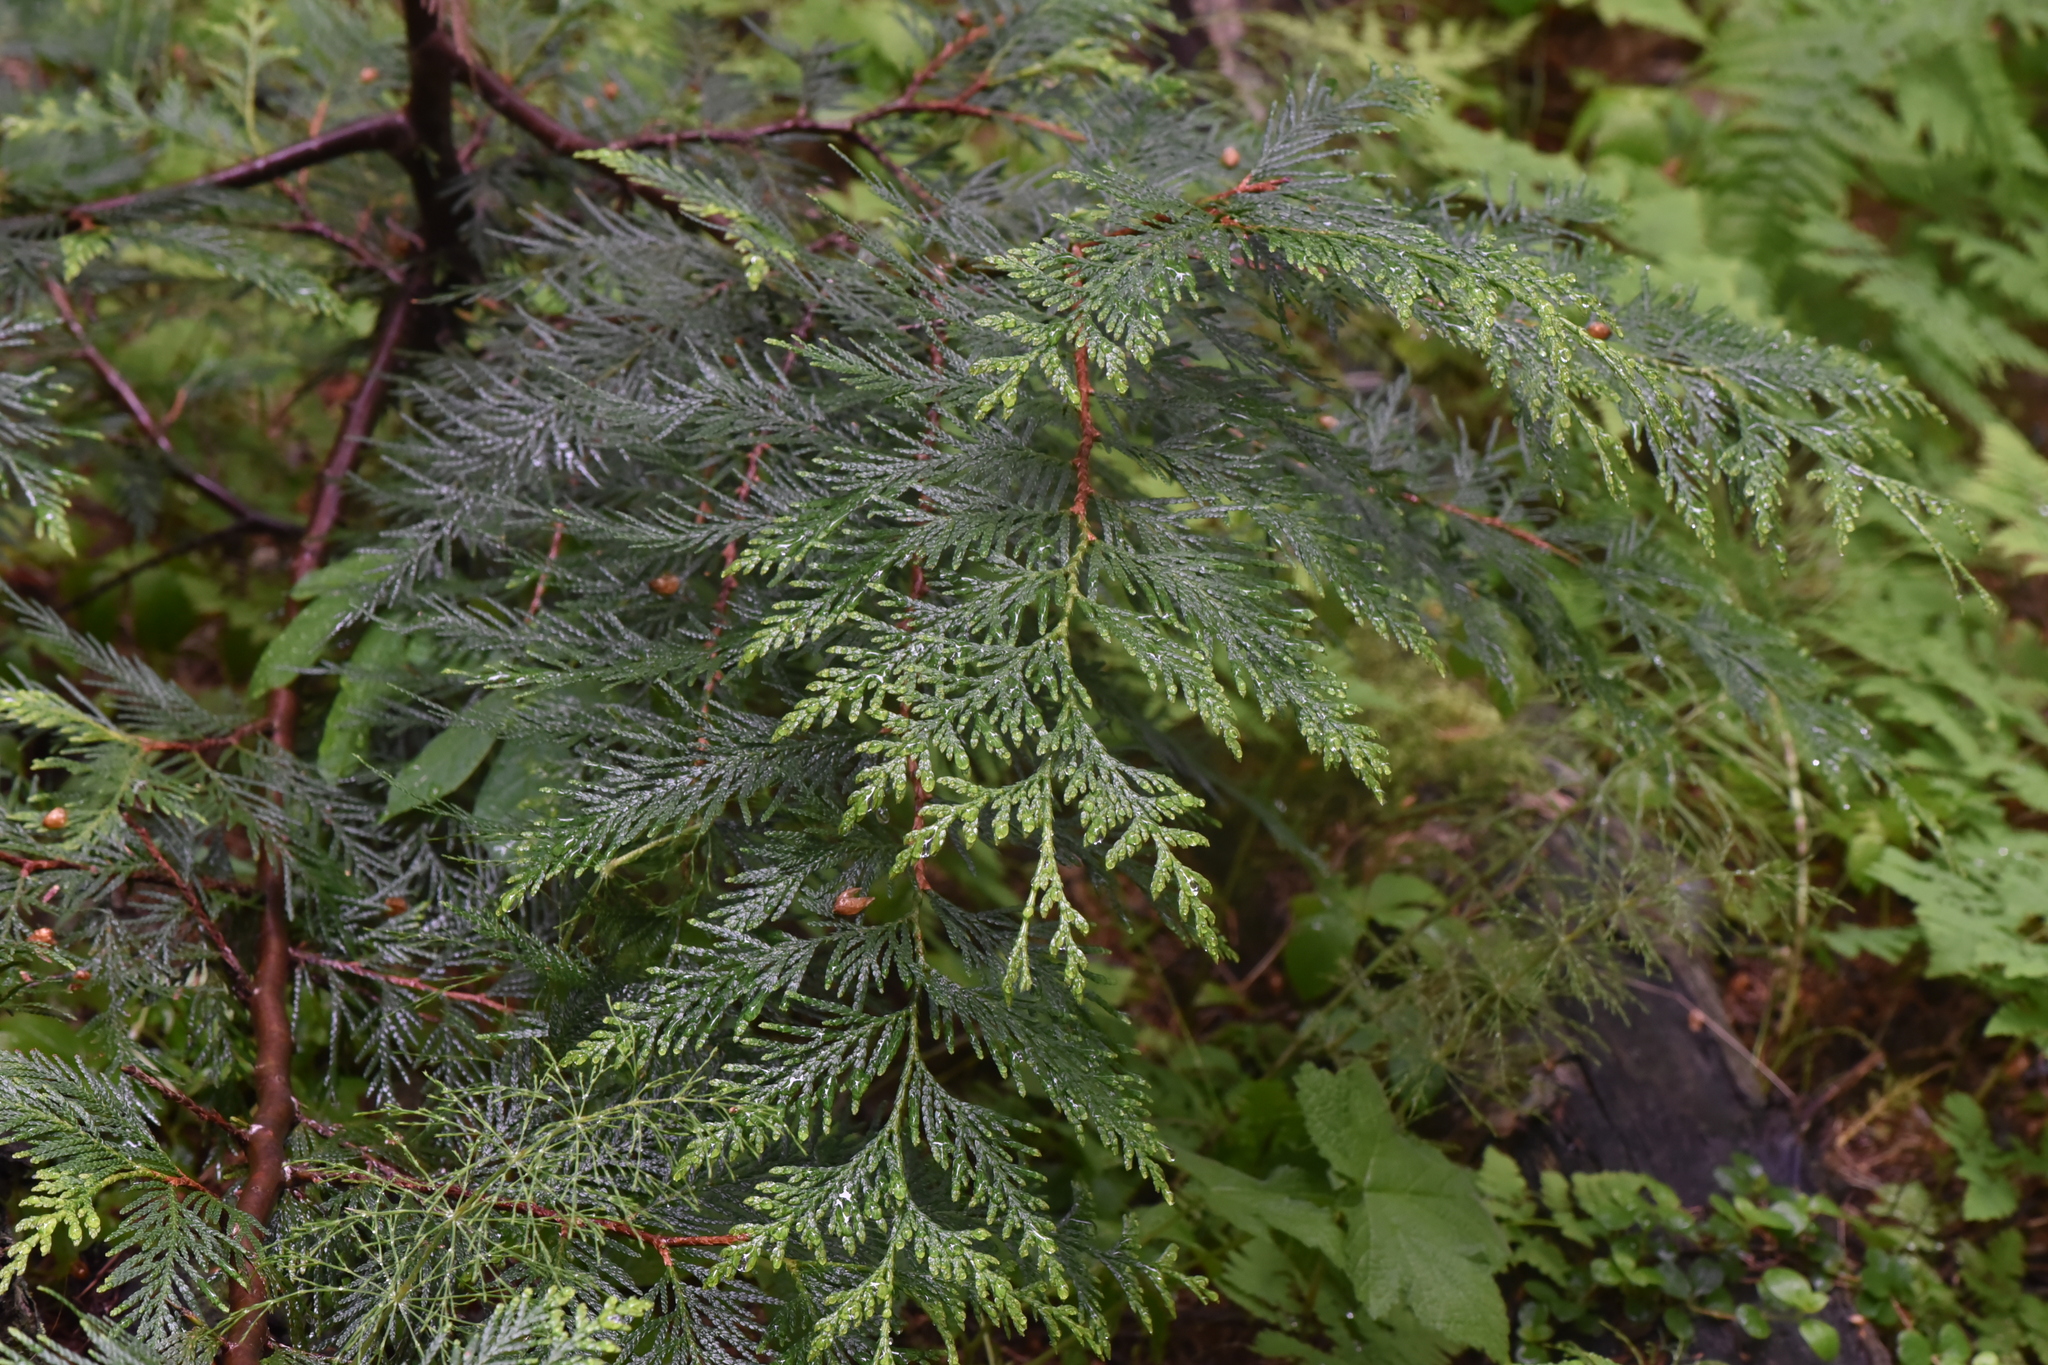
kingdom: Plantae
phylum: Tracheophyta
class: Pinopsida
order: Pinales
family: Cupressaceae
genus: Thuja
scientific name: Thuja plicata
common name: Western red-cedar
